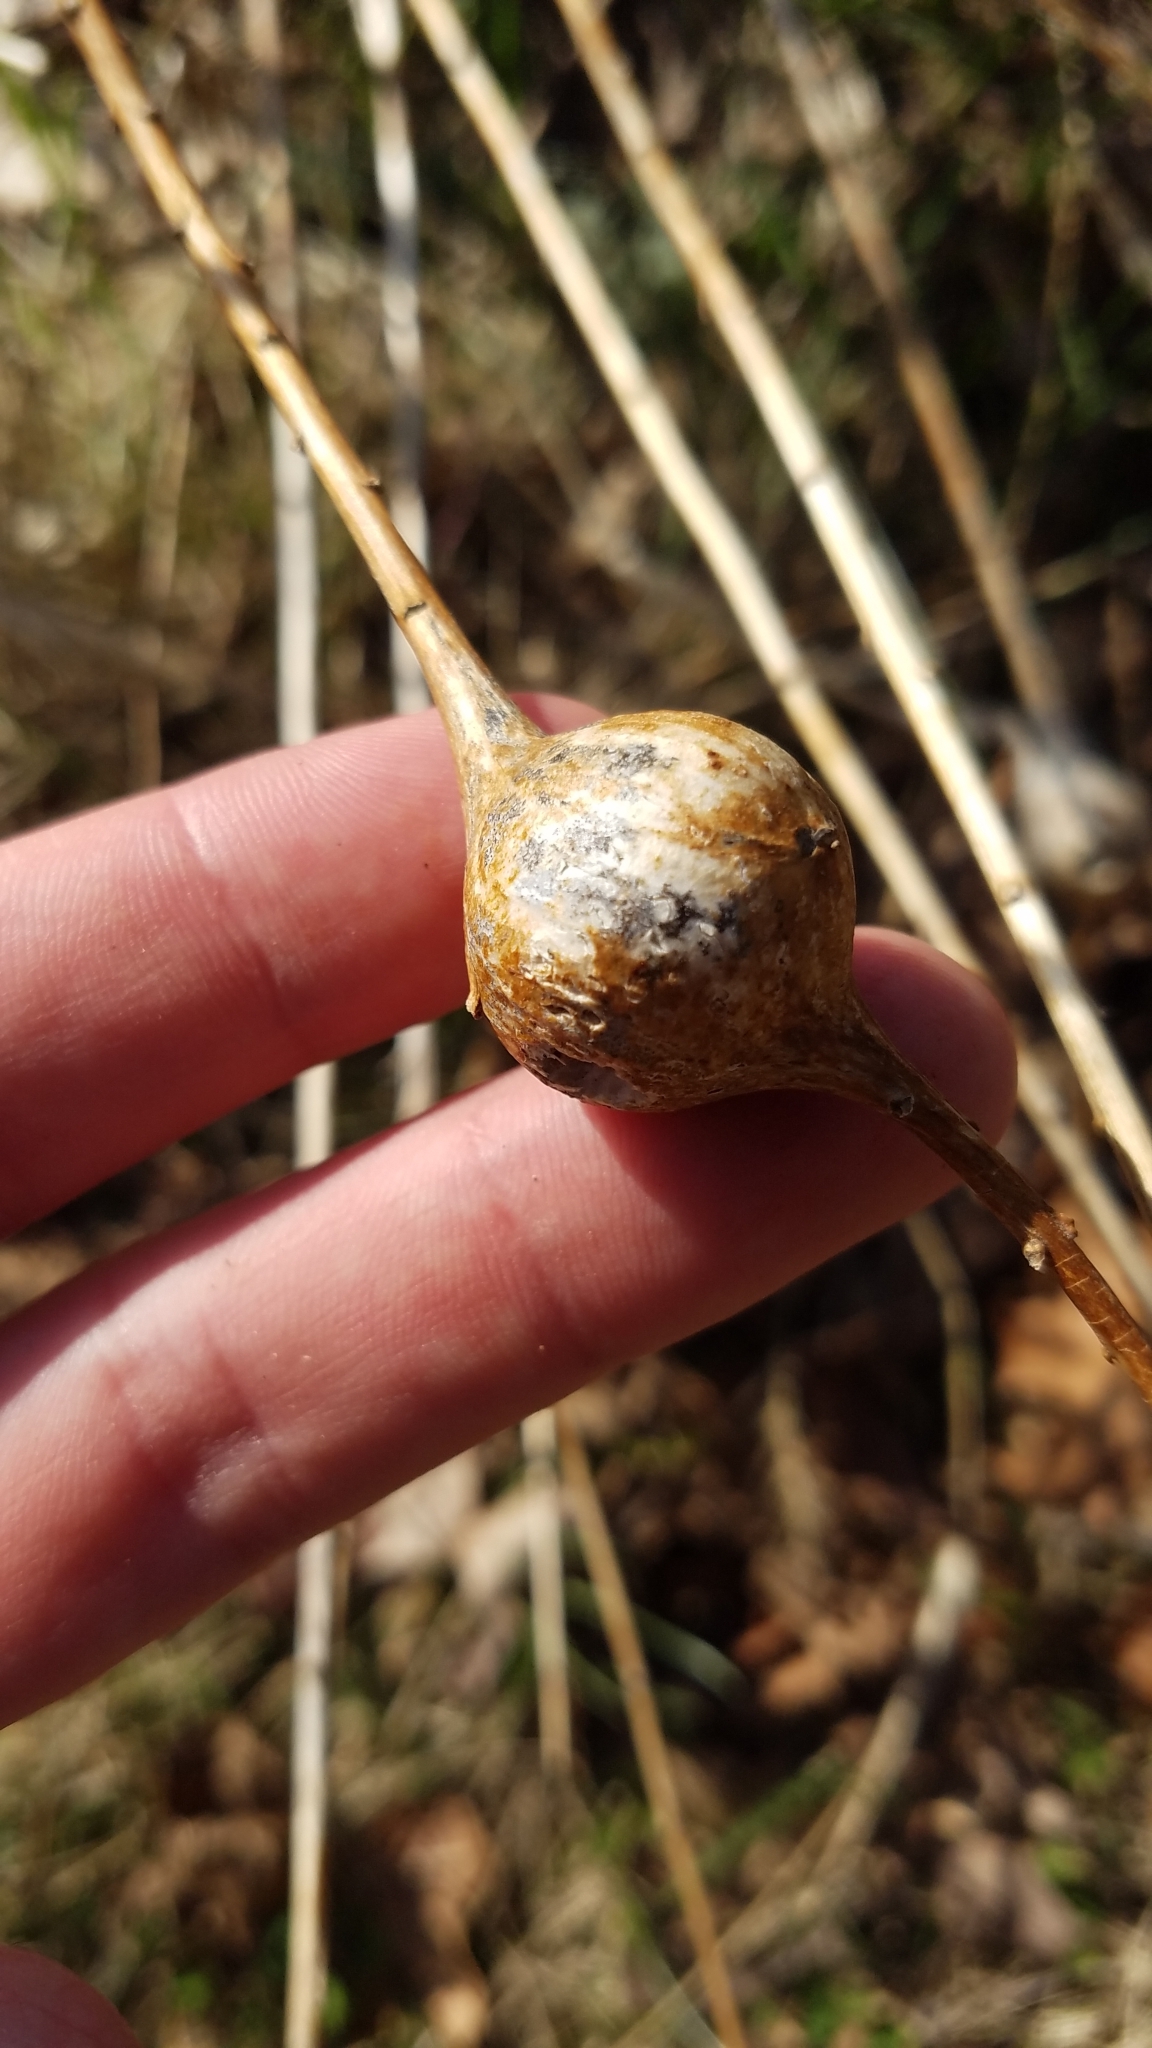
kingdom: Animalia
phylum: Arthropoda
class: Insecta
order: Diptera
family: Tephritidae
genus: Eurosta
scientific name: Eurosta solidaginis
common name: Goldenrod gall fly
